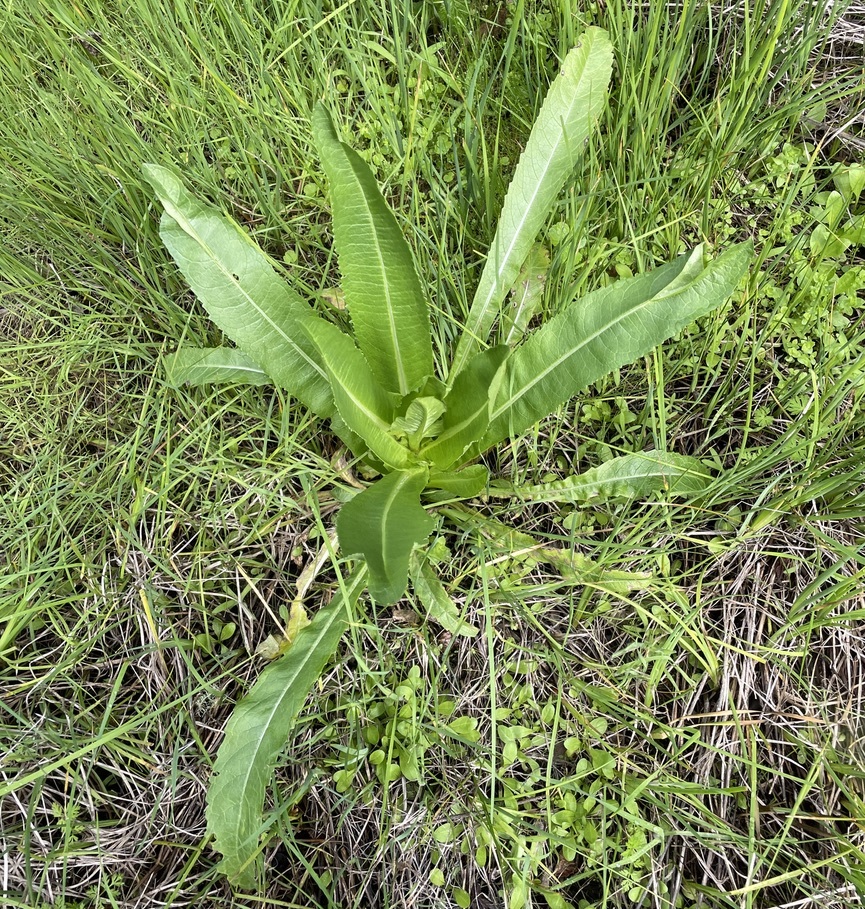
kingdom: Plantae
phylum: Tracheophyta
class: Magnoliopsida
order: Dipsacales
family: Caprifoliaceae
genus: Dipsacus
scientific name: Dipsacus sativus
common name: Fuller's teasel
